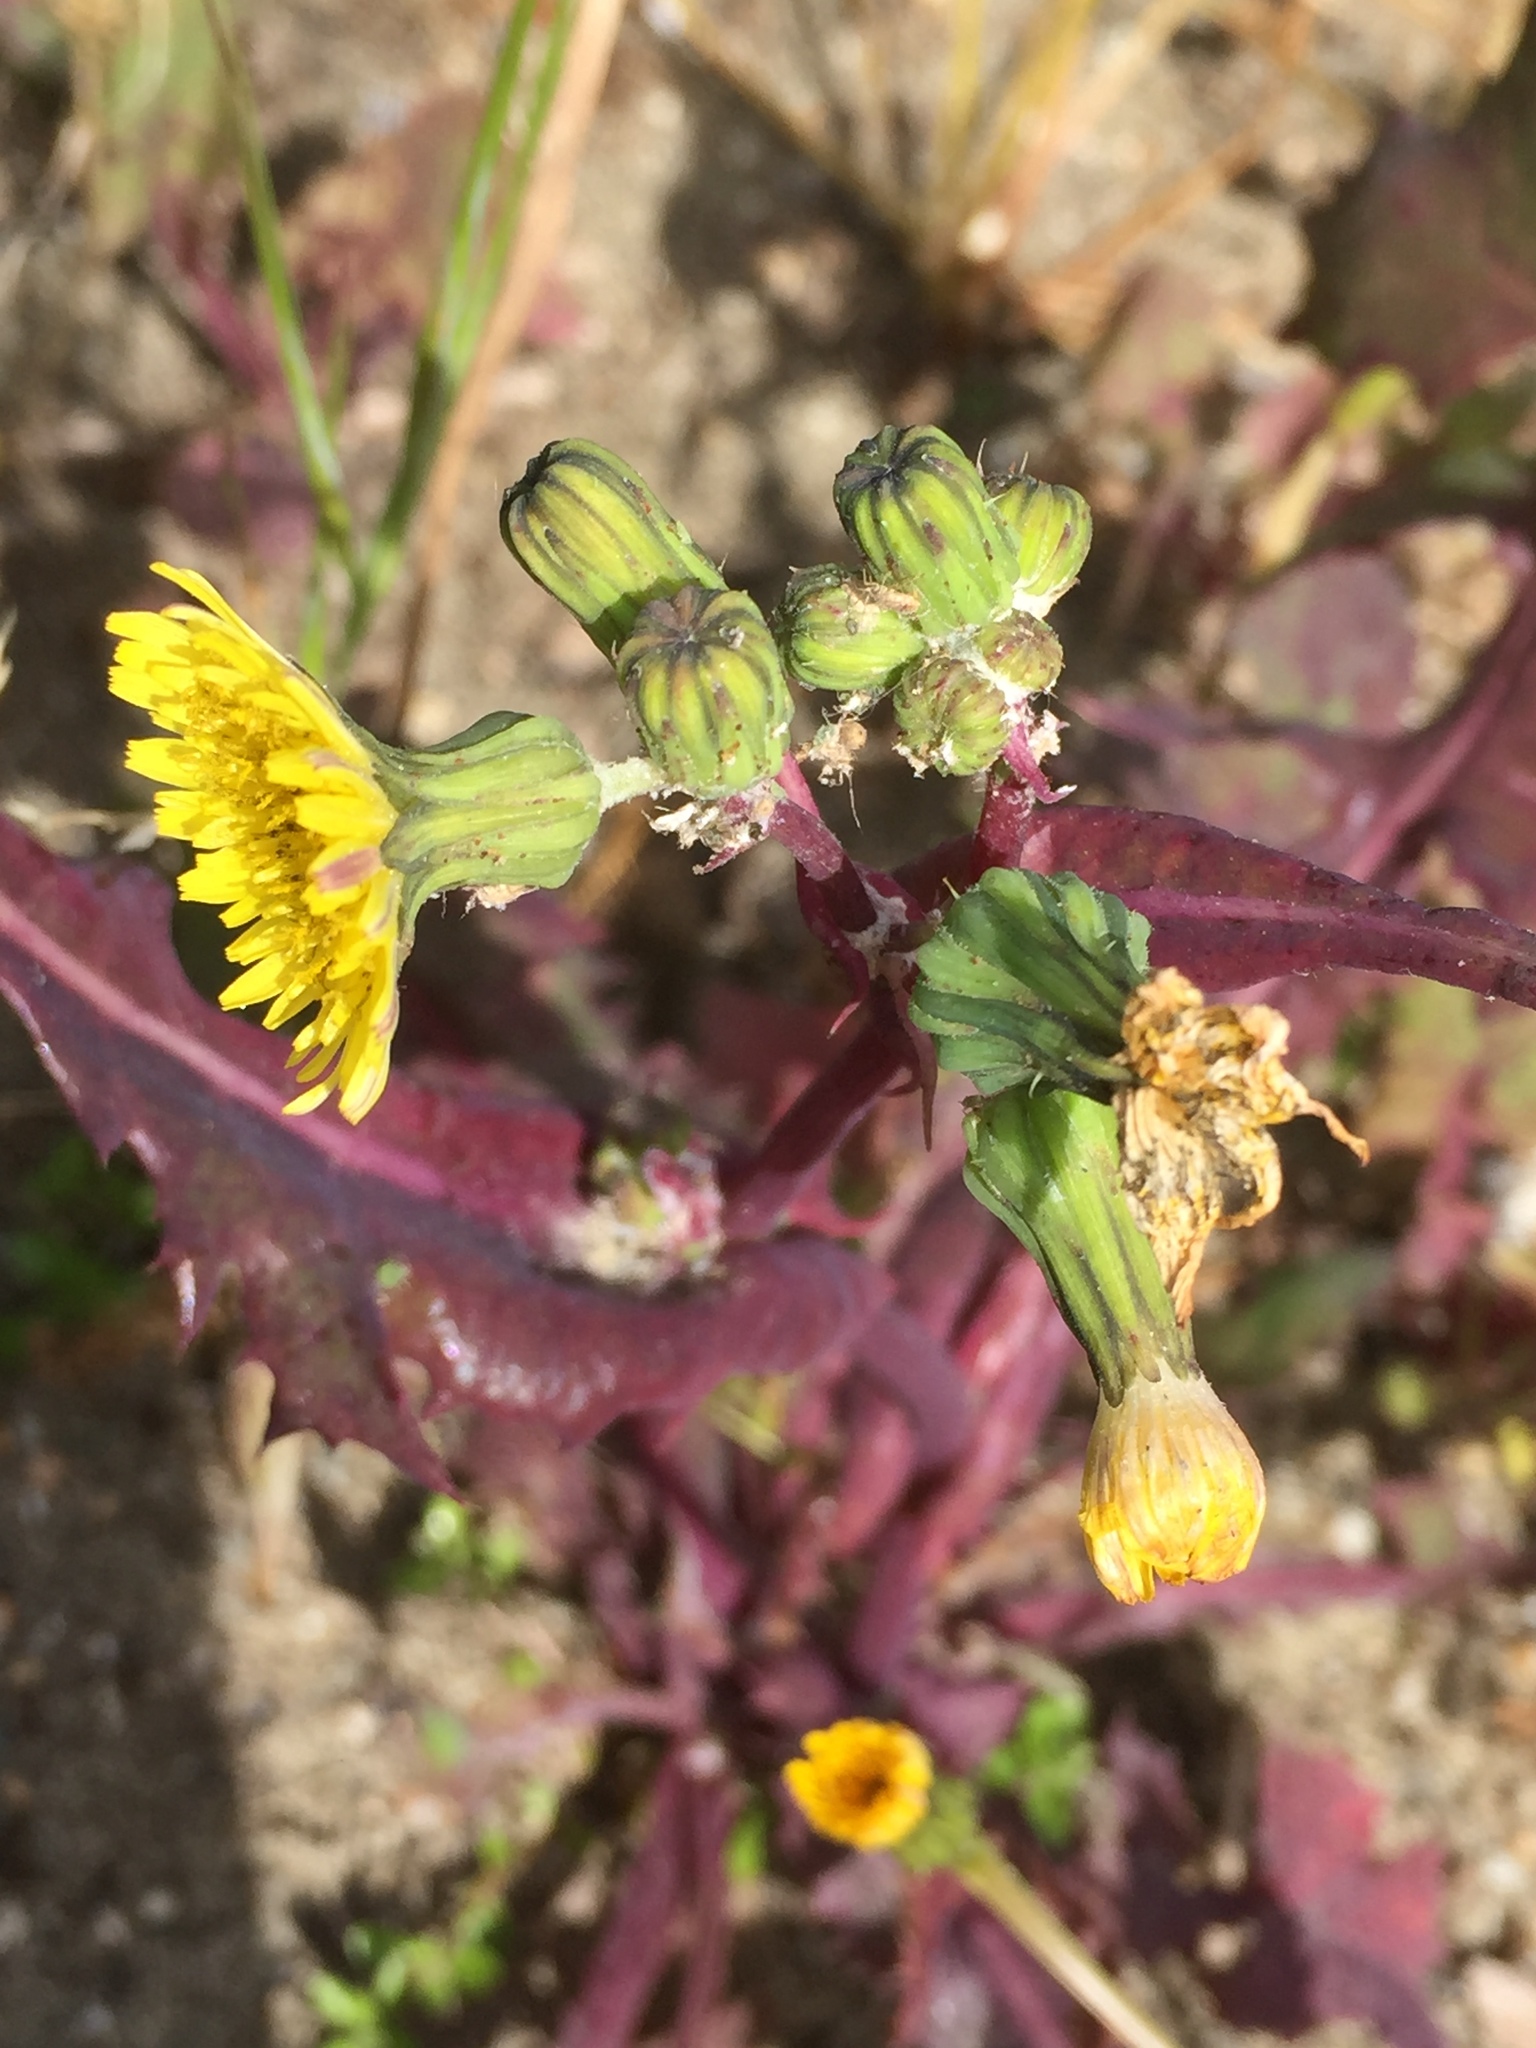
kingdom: Plantae
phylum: Tracheophyta
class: Magnoliopsida
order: Asterales
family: Asteraceae
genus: Sonchus
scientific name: Sonchus asper
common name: Prickly sow-thistle
